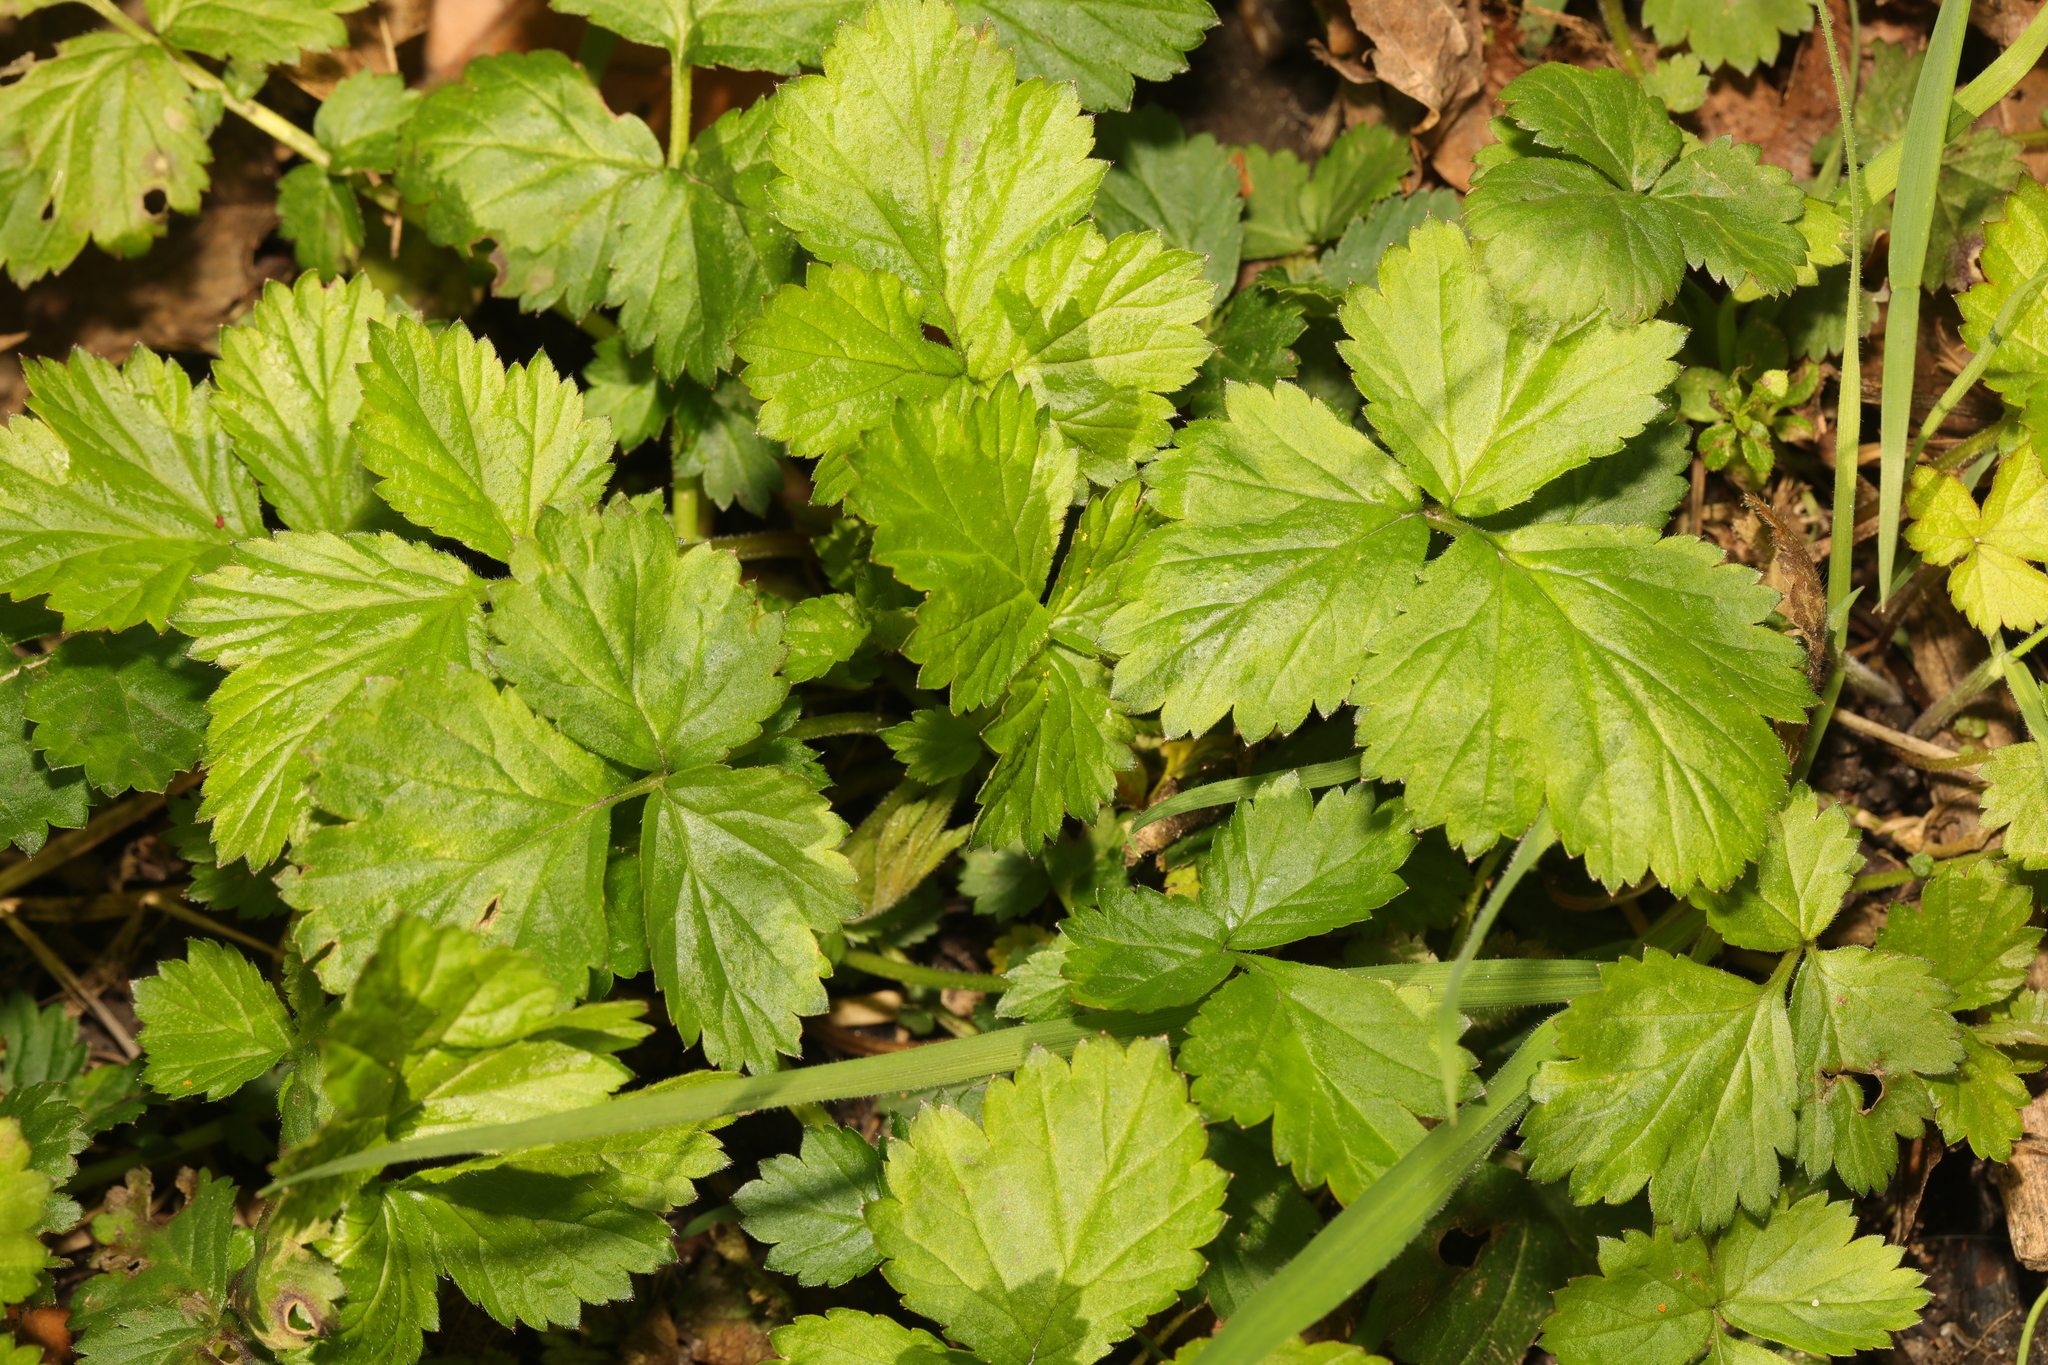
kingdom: Plantae
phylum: Tracheophyta
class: Magnoliopsida
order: Rosales
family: Rosaceae
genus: Geum
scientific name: Geum urbanum
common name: Wood avens
